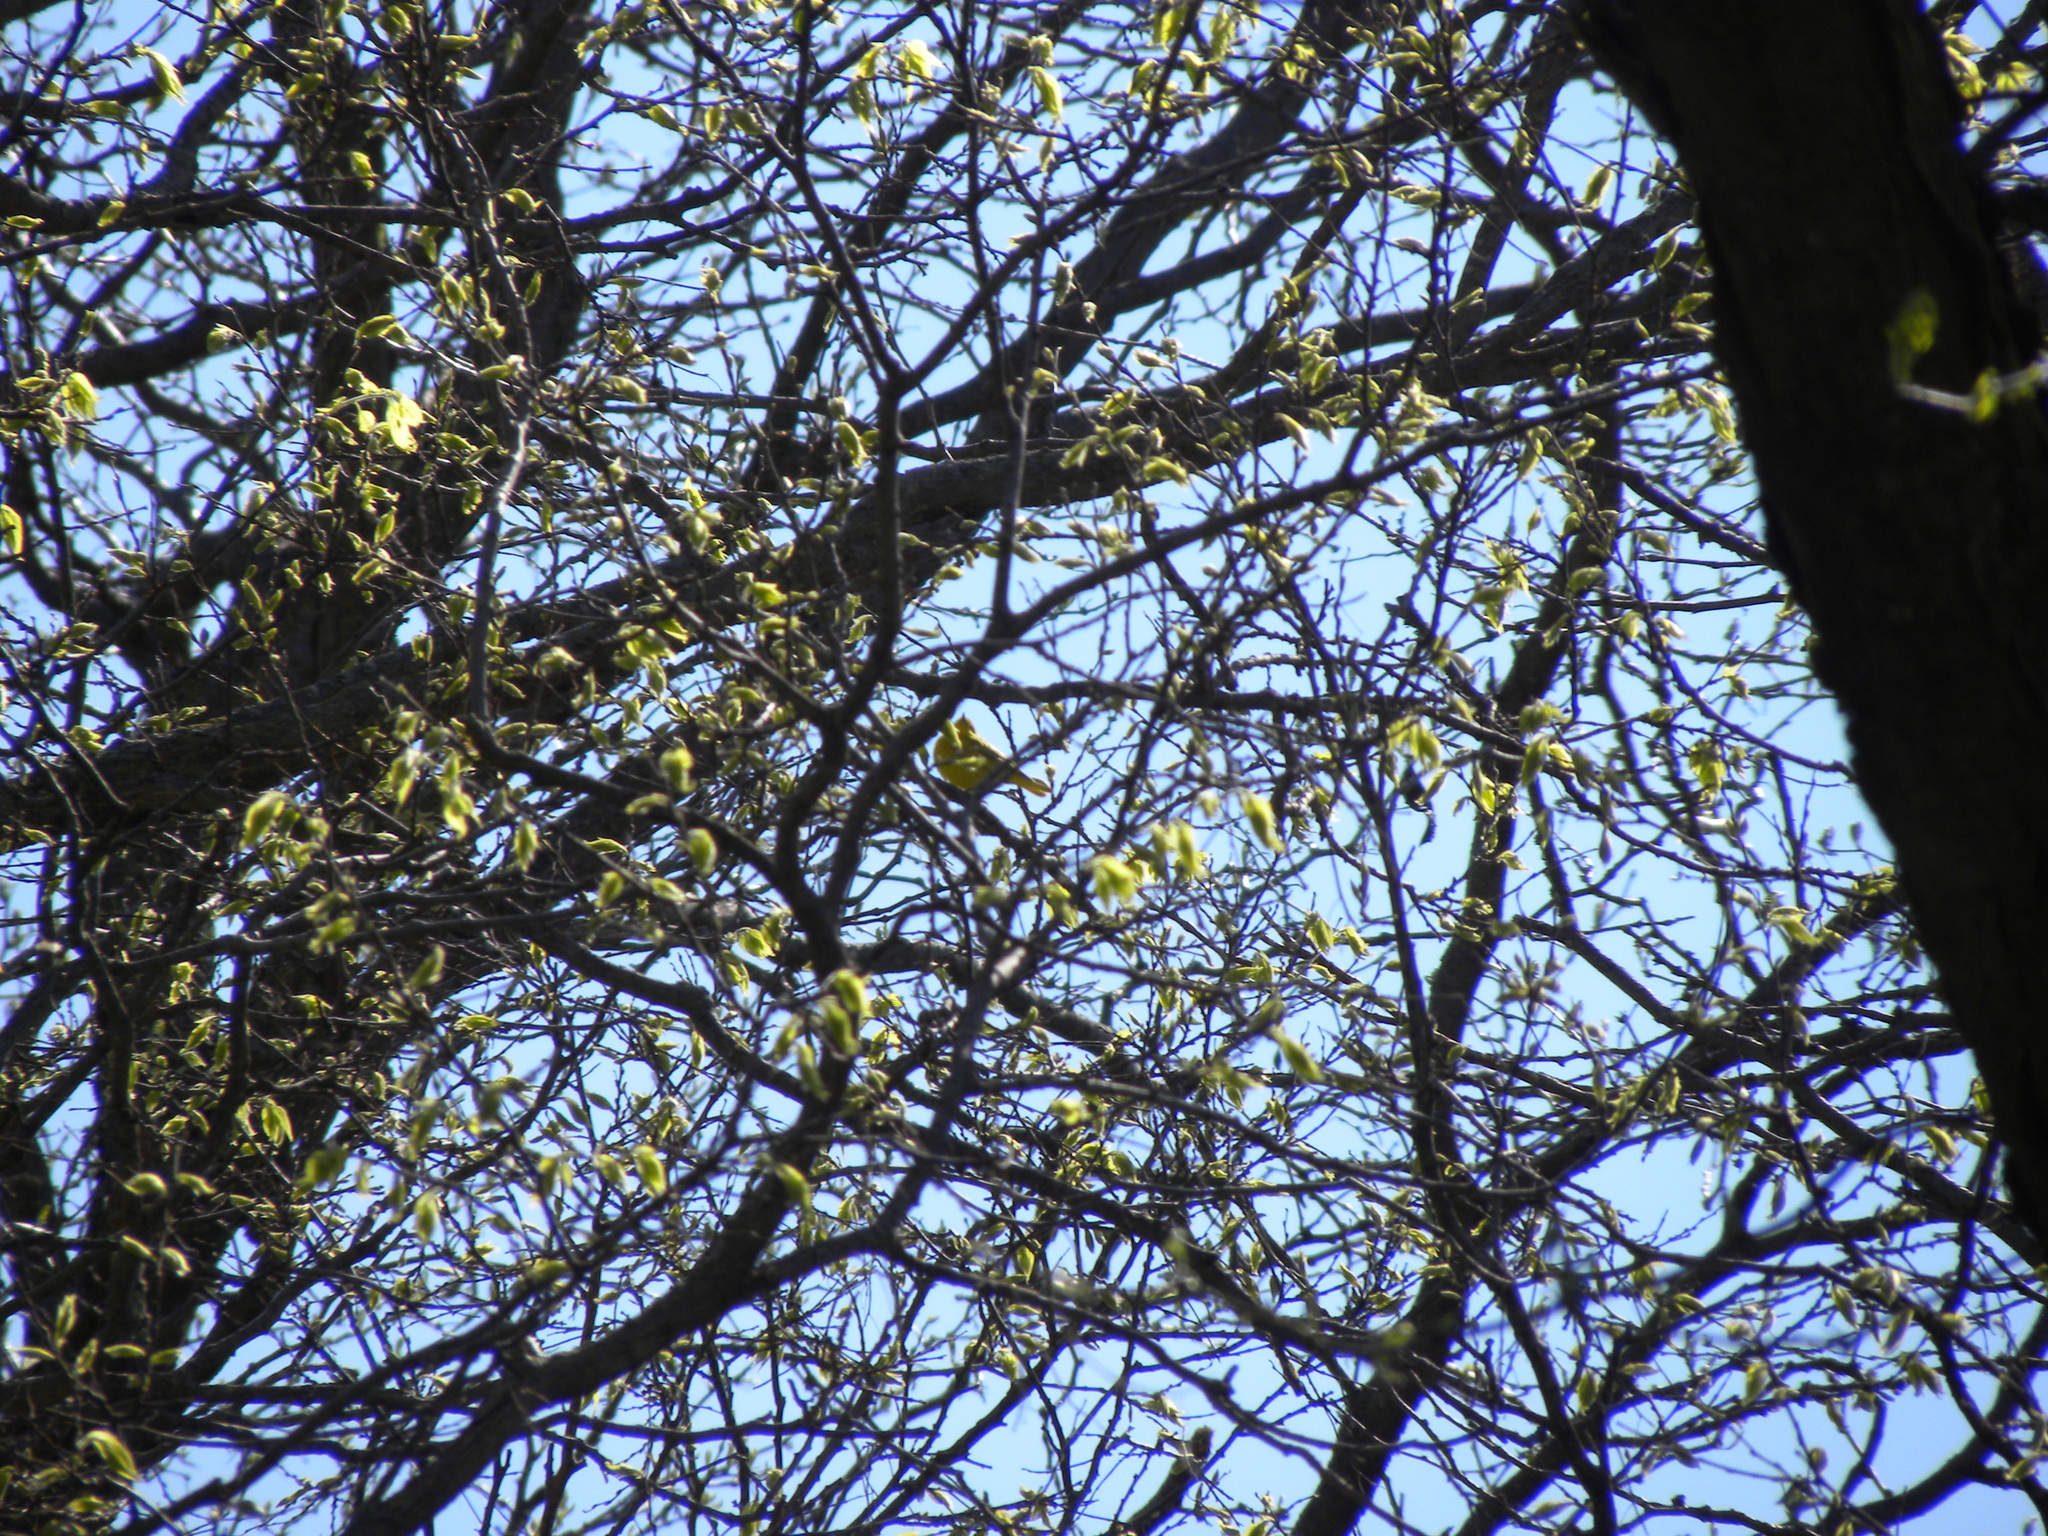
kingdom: Animalia
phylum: Chordata
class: Aves
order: Passeriformes
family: Parulidae
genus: Setophaga
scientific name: Setophaga petechia
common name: Yellow warbler
